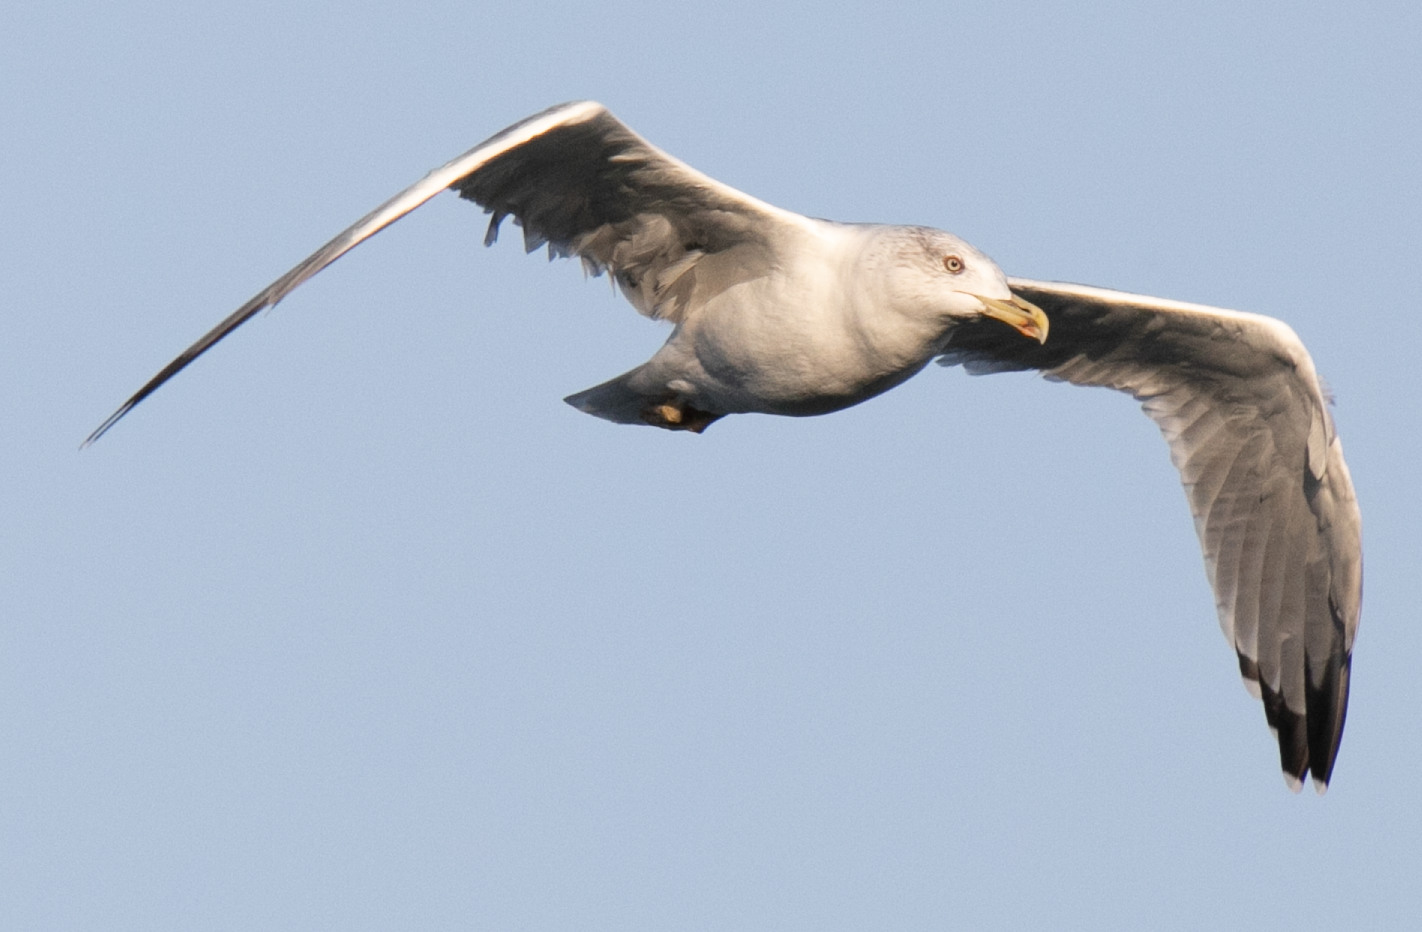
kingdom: Animalia
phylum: Chordata
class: Aves
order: Charadriiformes
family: Laridae
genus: Larus
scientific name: Larus michahellis
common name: Yellow-legged gull
